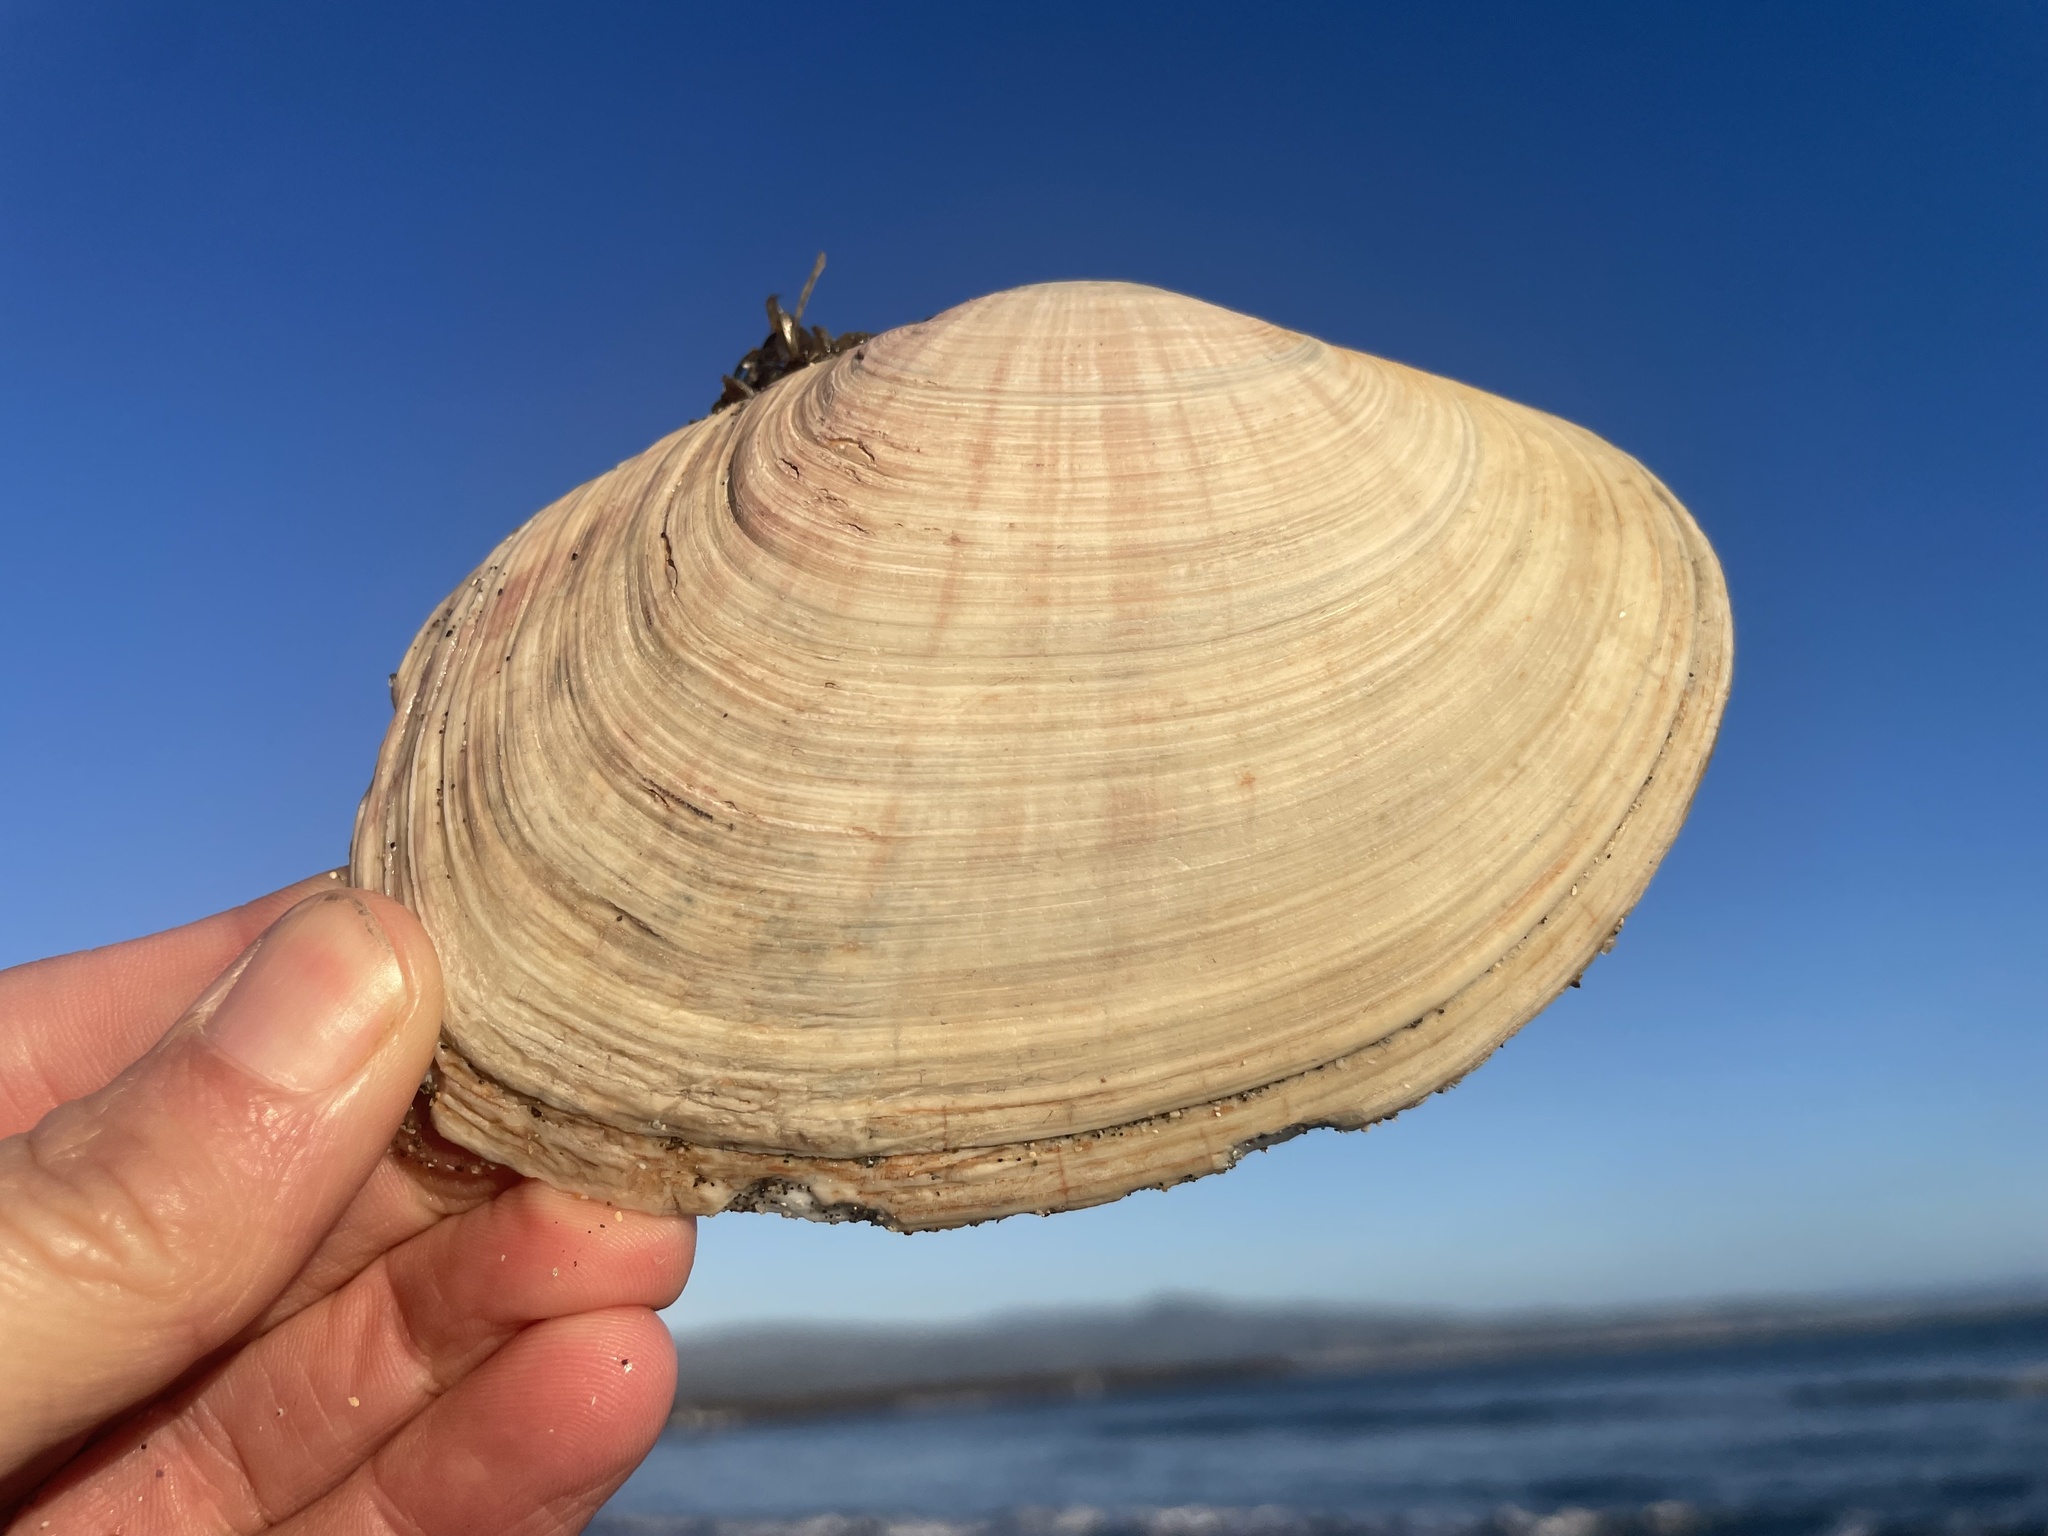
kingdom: Animalia
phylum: Mollusca
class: Bivalvia
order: Cardiida
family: Psammobiidae
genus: Gari
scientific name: Gari californica
